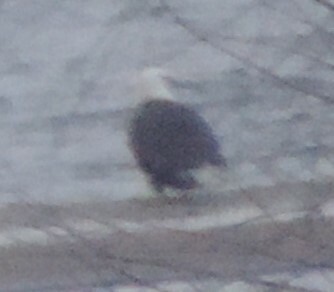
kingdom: Animalia
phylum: Chordata
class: Aves
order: Accipitriformes
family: Accipitridae
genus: Haliaeetus
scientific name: Haliaeetus leucocephalus
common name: Bald eagle
